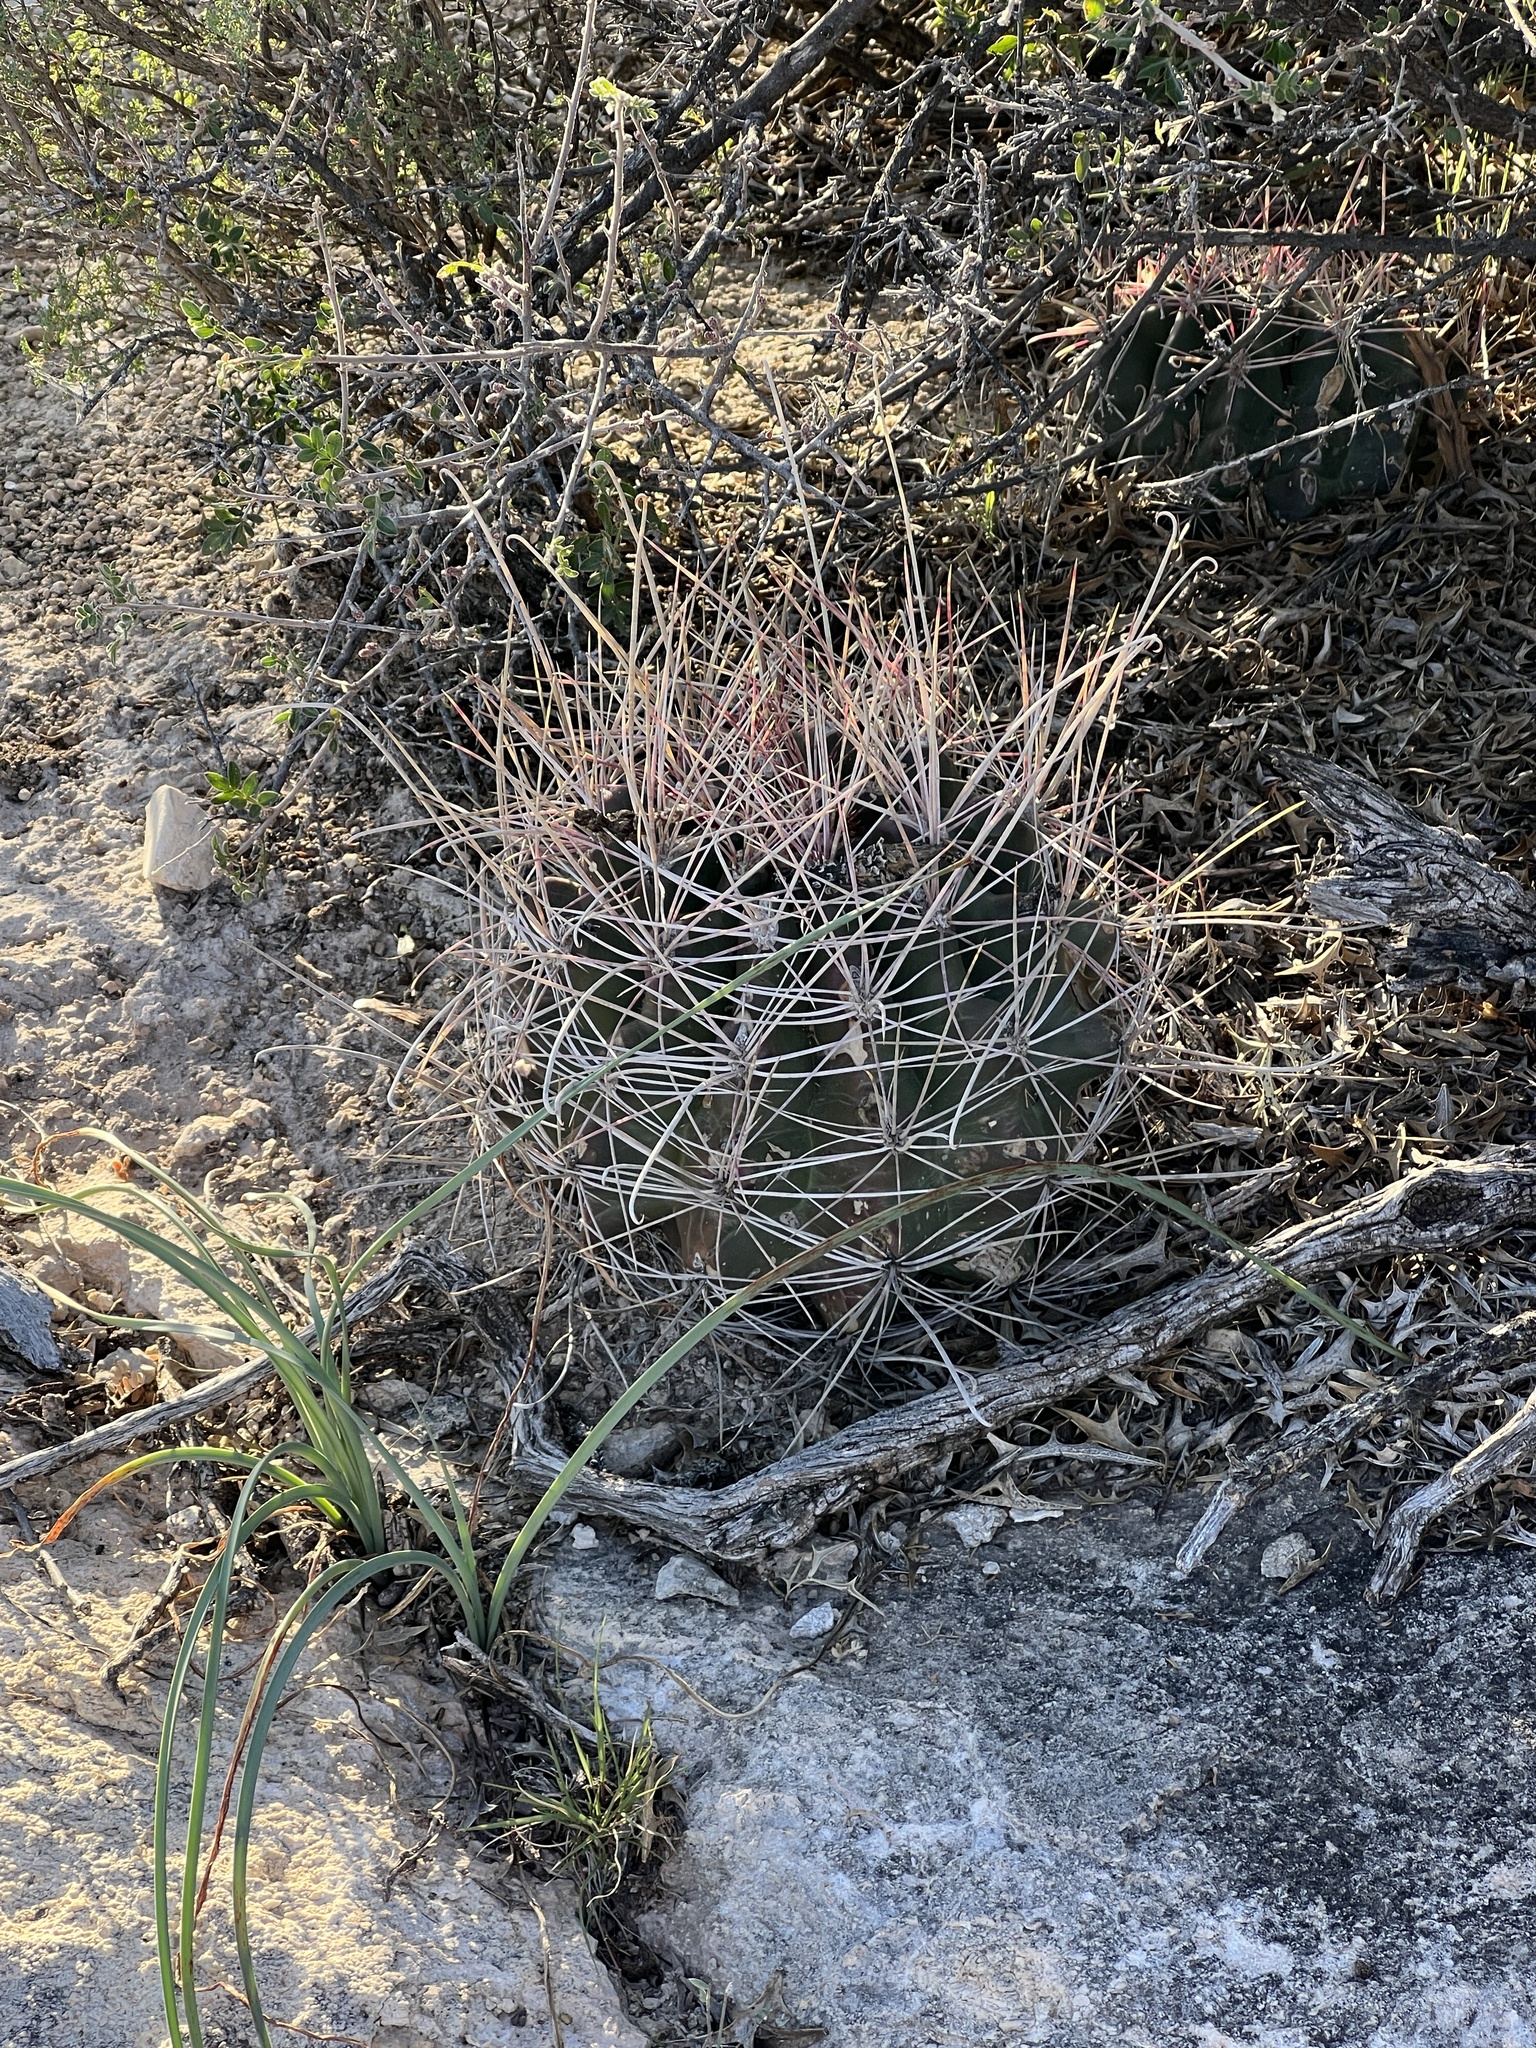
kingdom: Plantae
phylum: Tracheophyta
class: Magnoliopsida
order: Caryophyllales
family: Cactaceae
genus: Bisnaga
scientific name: Bisnaga hamatacantha
